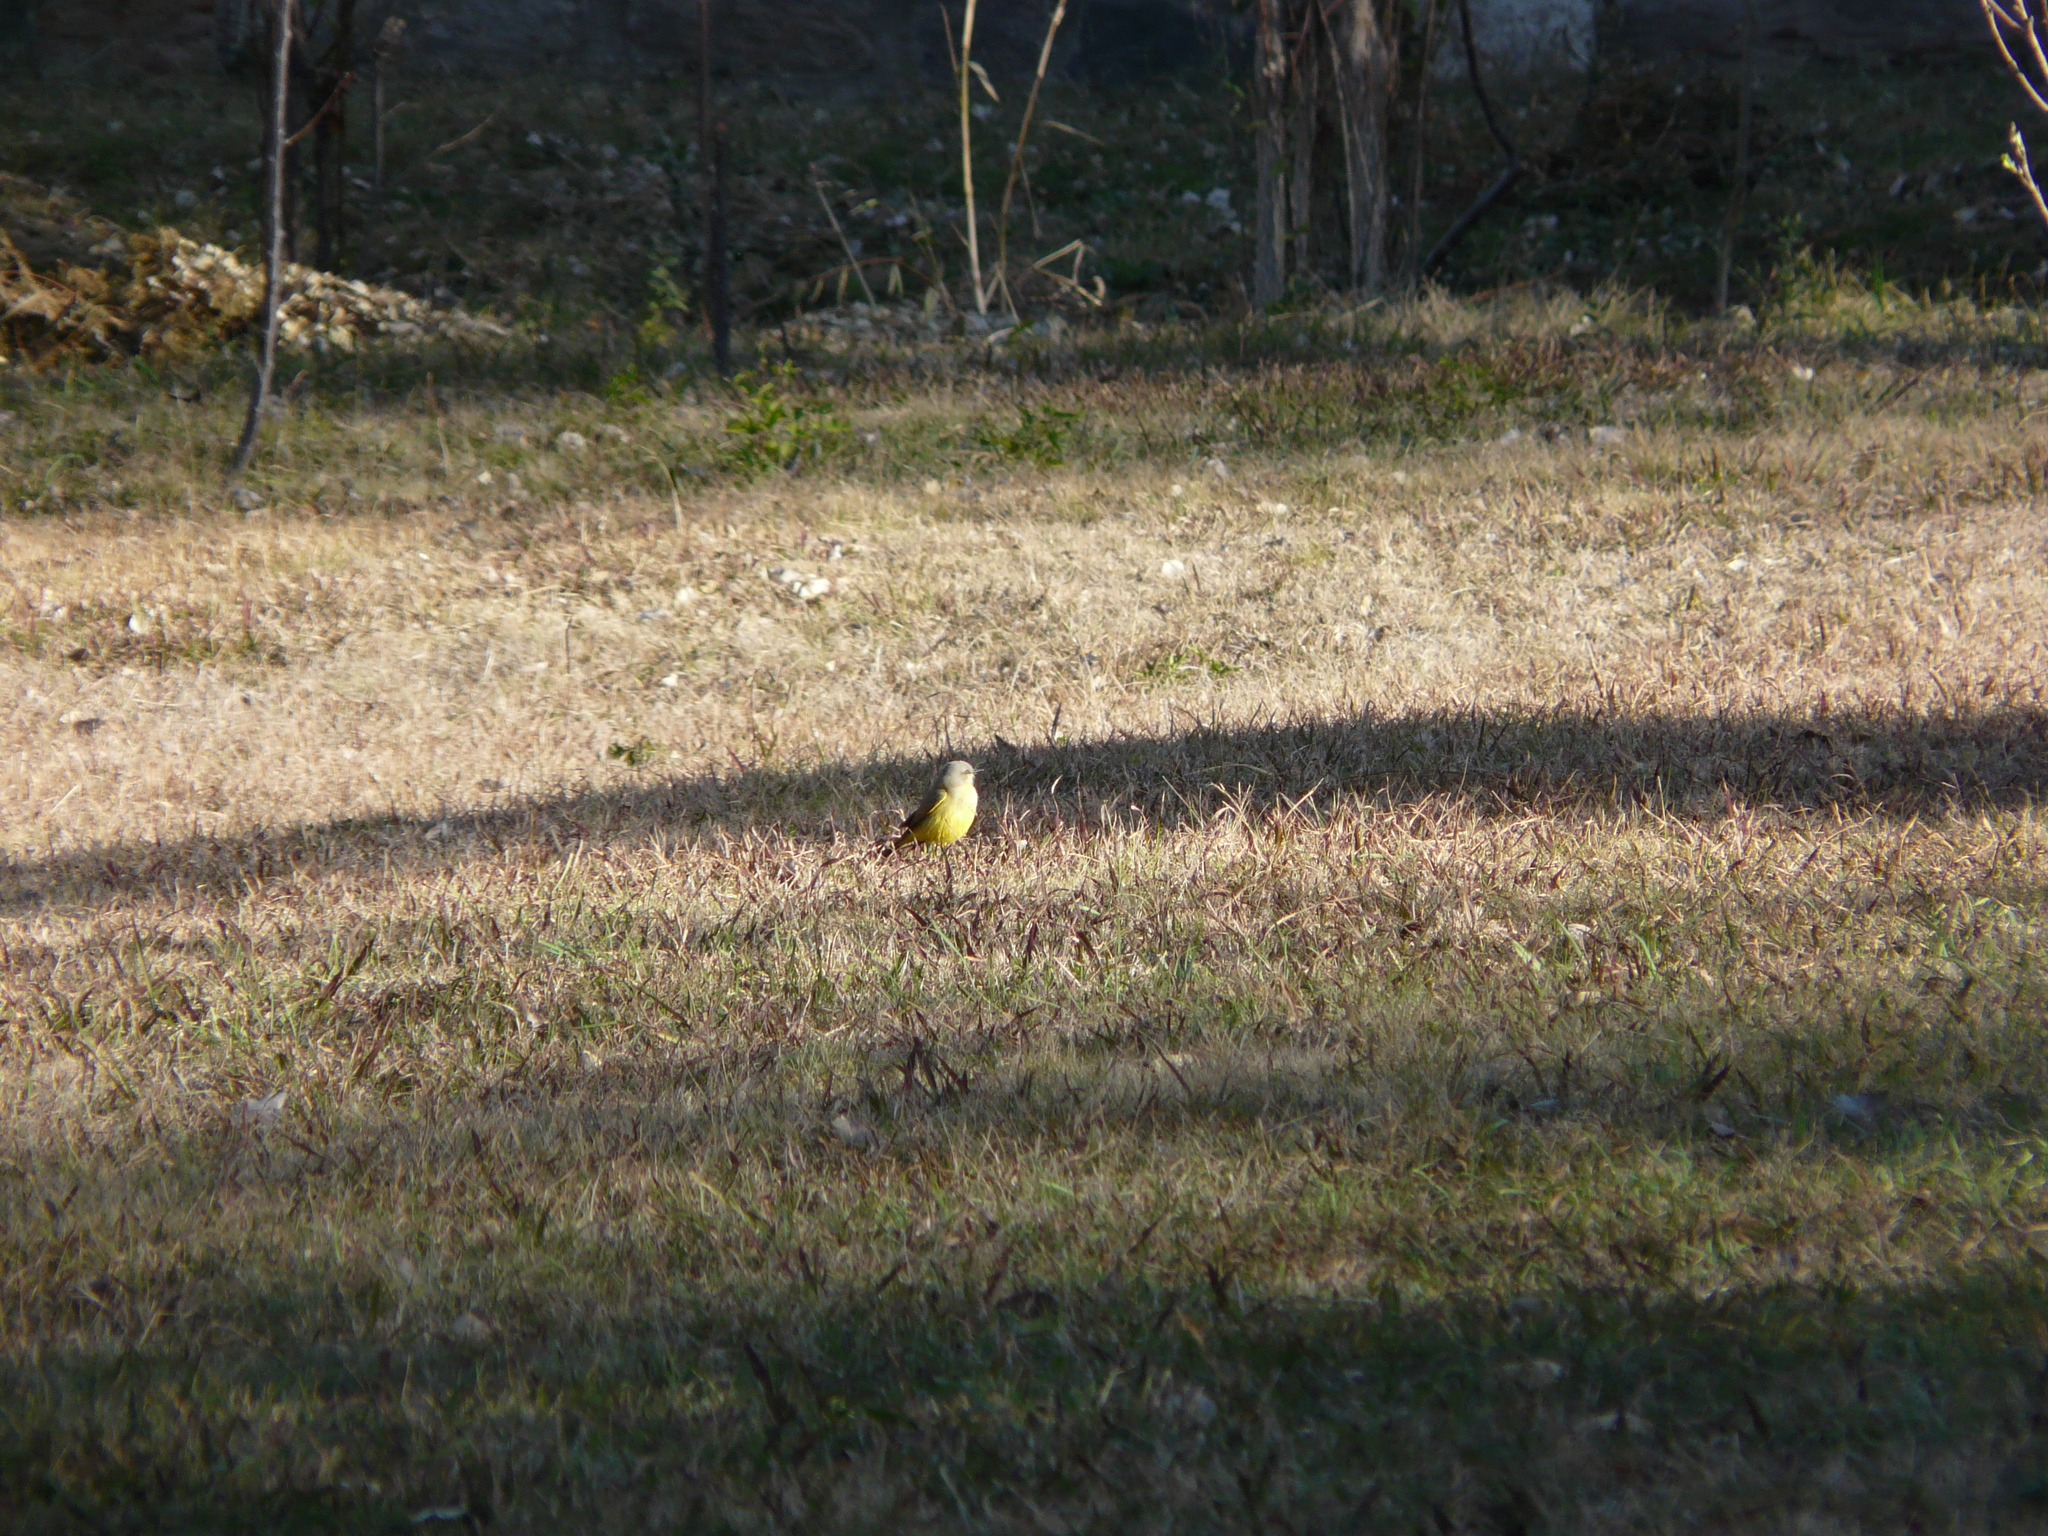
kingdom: Animalia
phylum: Chordata
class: Aves
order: Passeriformes
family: Tyrannidae
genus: Machetornis
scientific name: Machetornis rixosa
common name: Cattle tyrant
